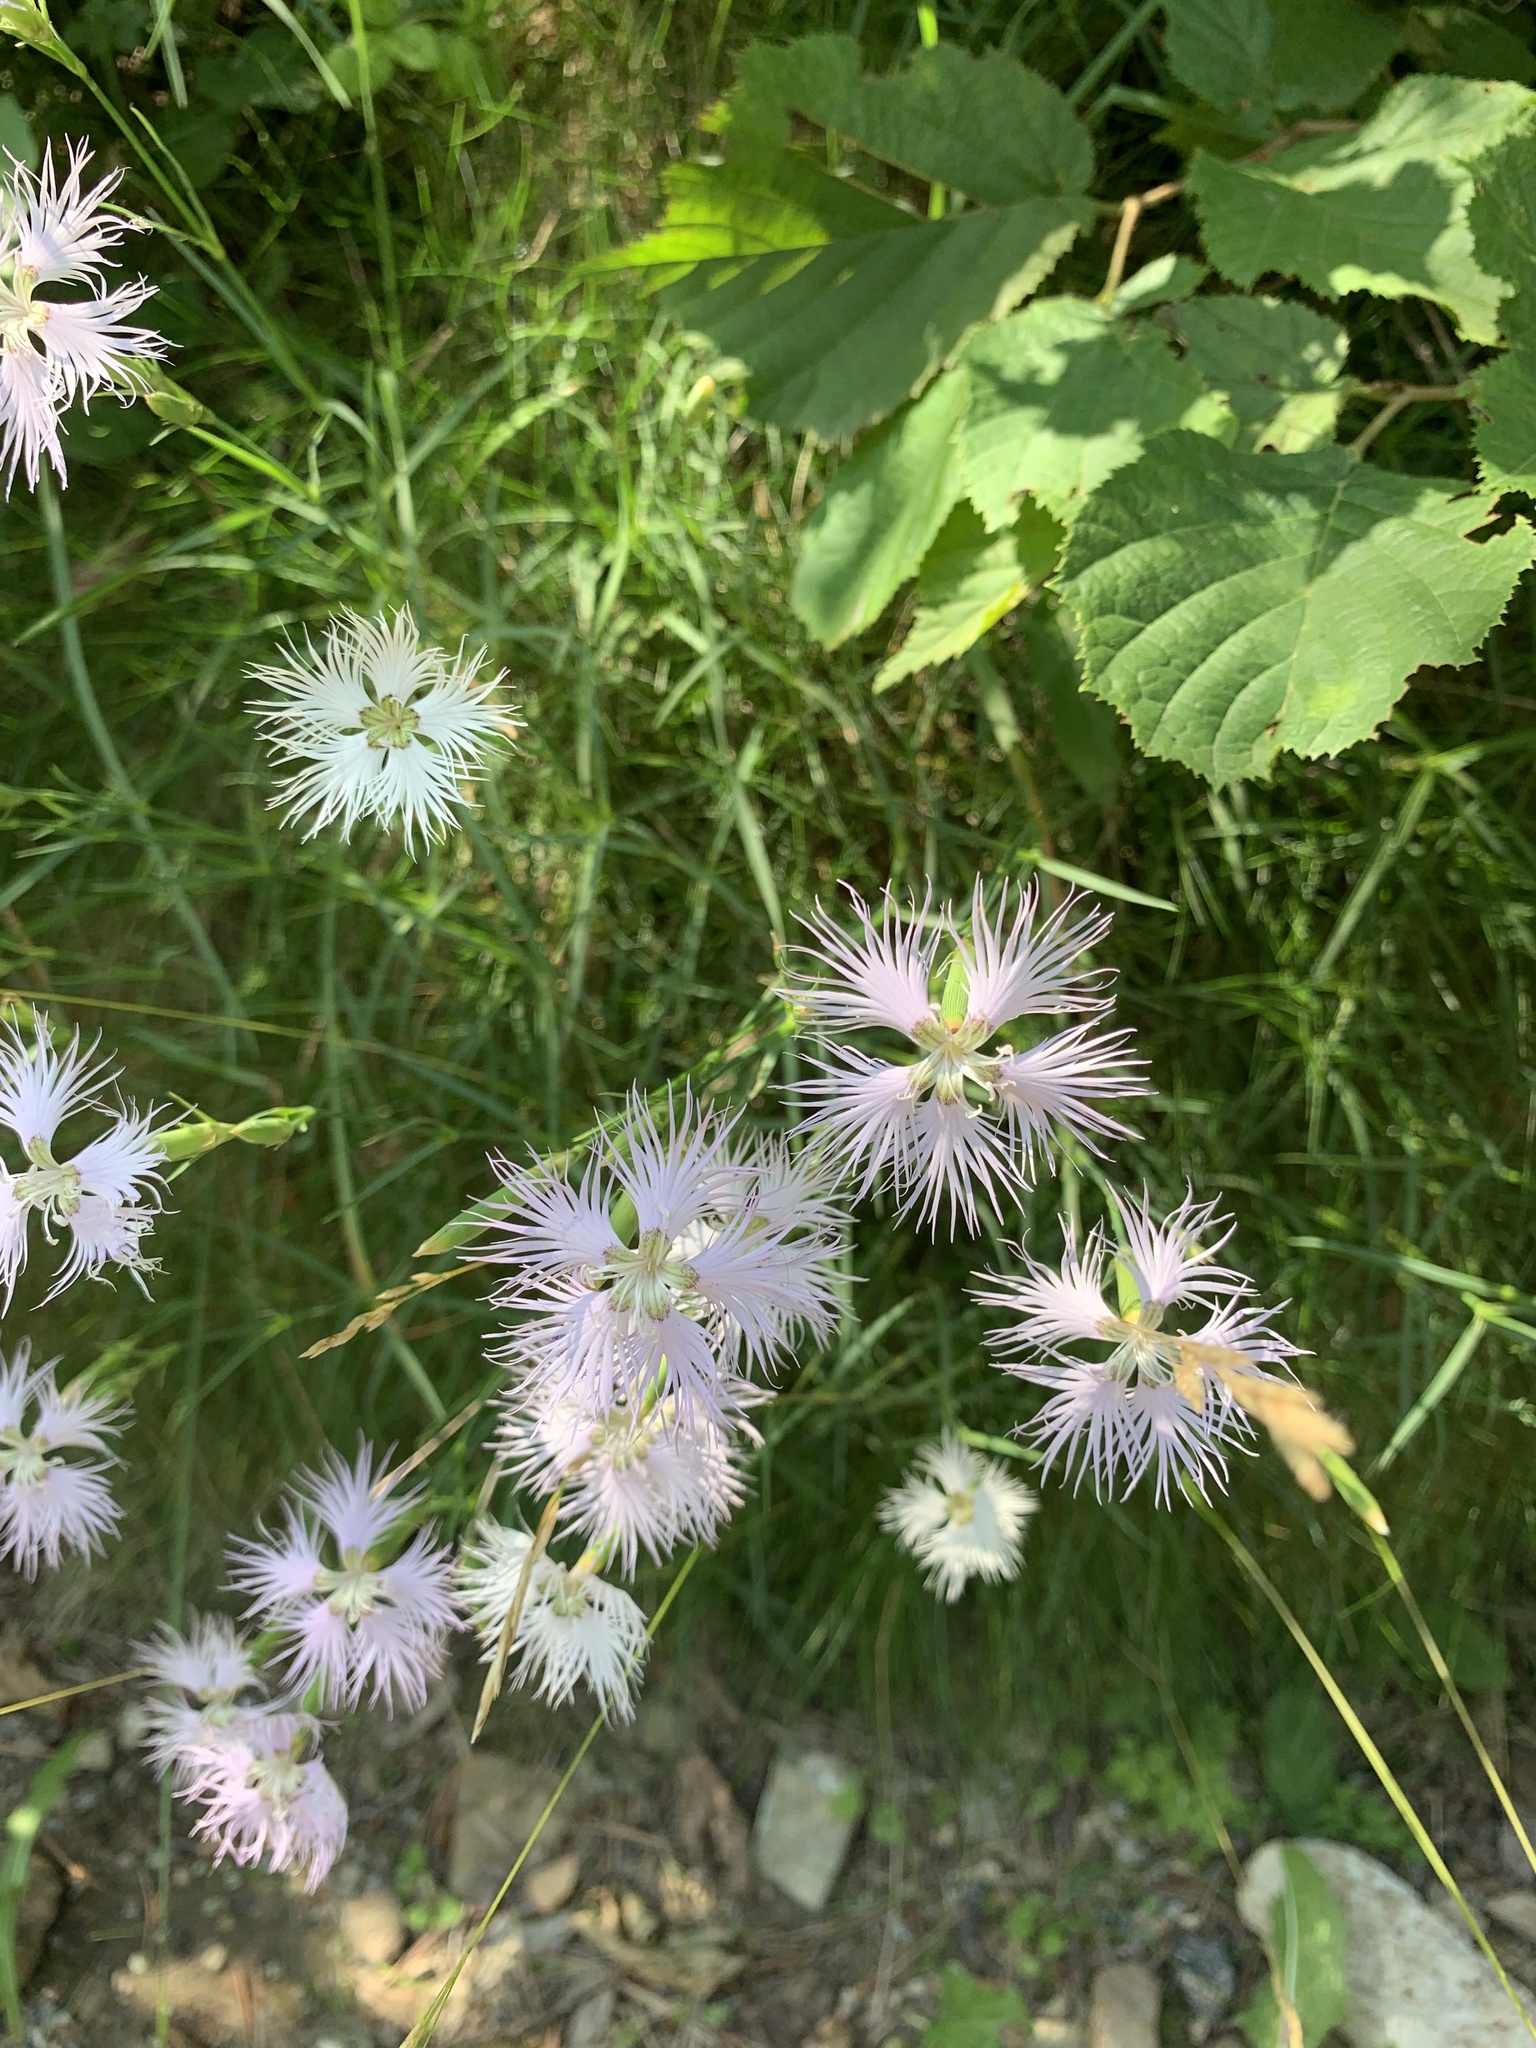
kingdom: Plantae
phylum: Tracheophyta
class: Magnoliopsida
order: Caryophyllales
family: Caryophyllaceae
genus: Dianthus
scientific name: Dianthus hyssopifolius
